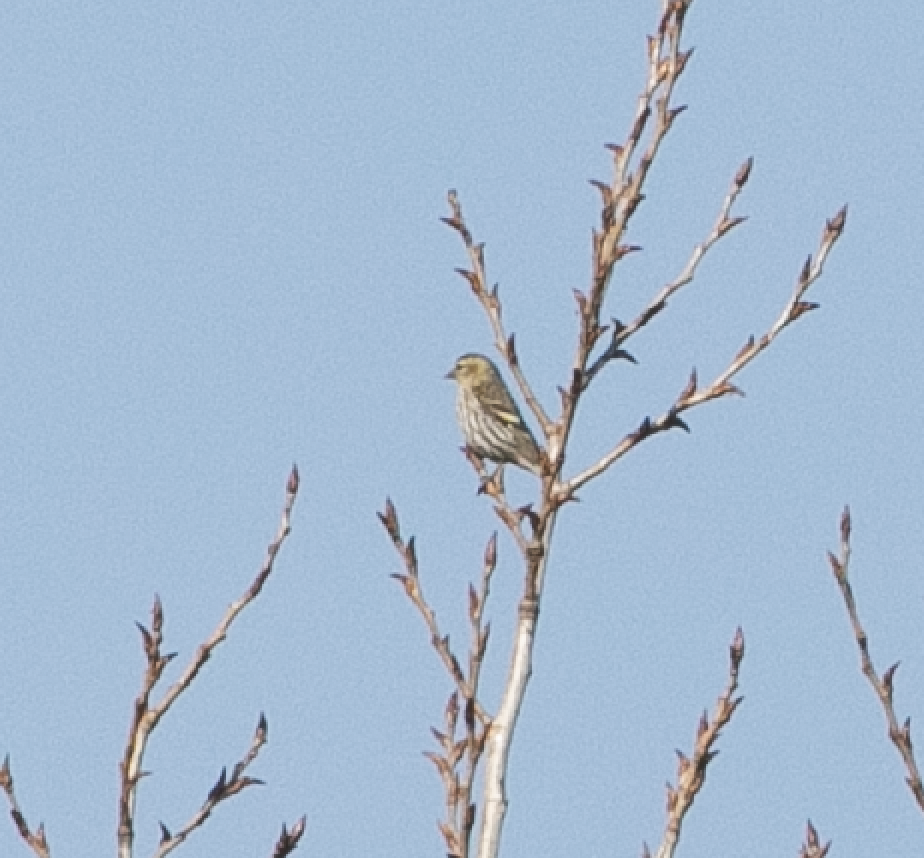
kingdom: Animalia
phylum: Chordata
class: Aves
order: Passeriformes
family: Fringillidae
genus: Spinus
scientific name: Spinus spinus
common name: Eurasian siskin
